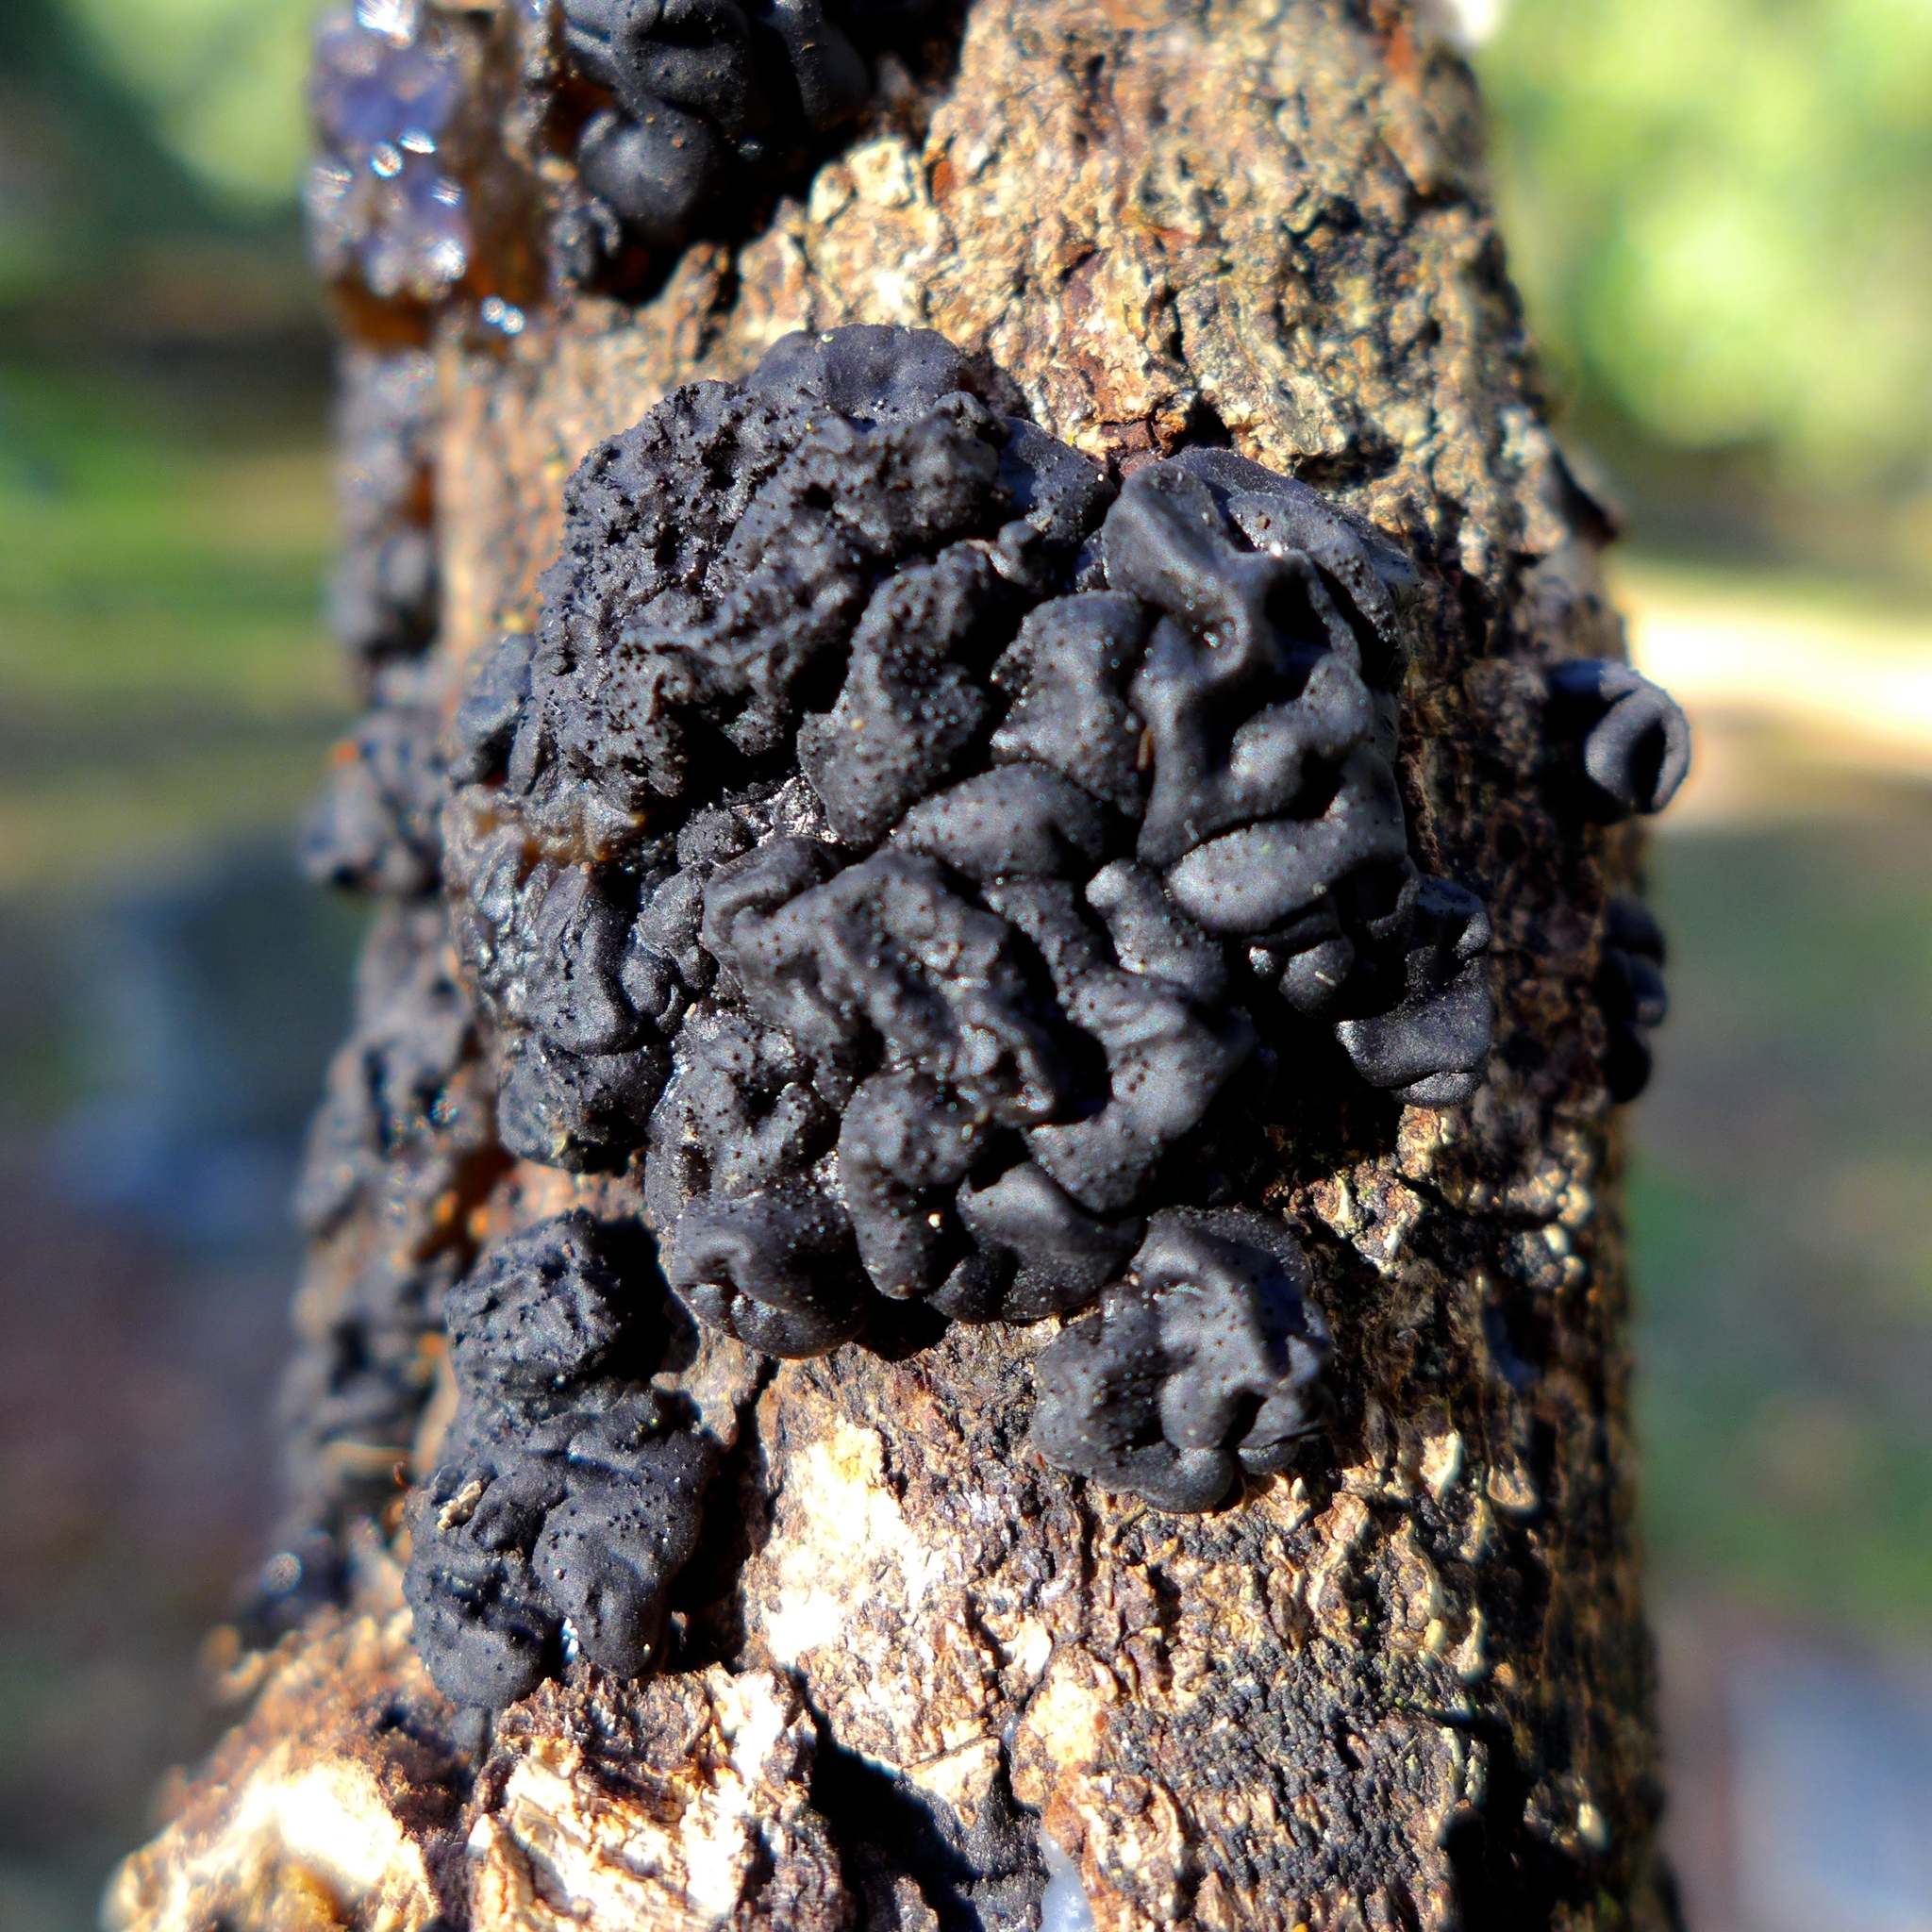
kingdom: Fungi
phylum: Basidiomycota
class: Agaricomycetes
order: Auriculariales
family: Auriculariaceae
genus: Exidia
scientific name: Exidia glandulosa
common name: Witches' butter
